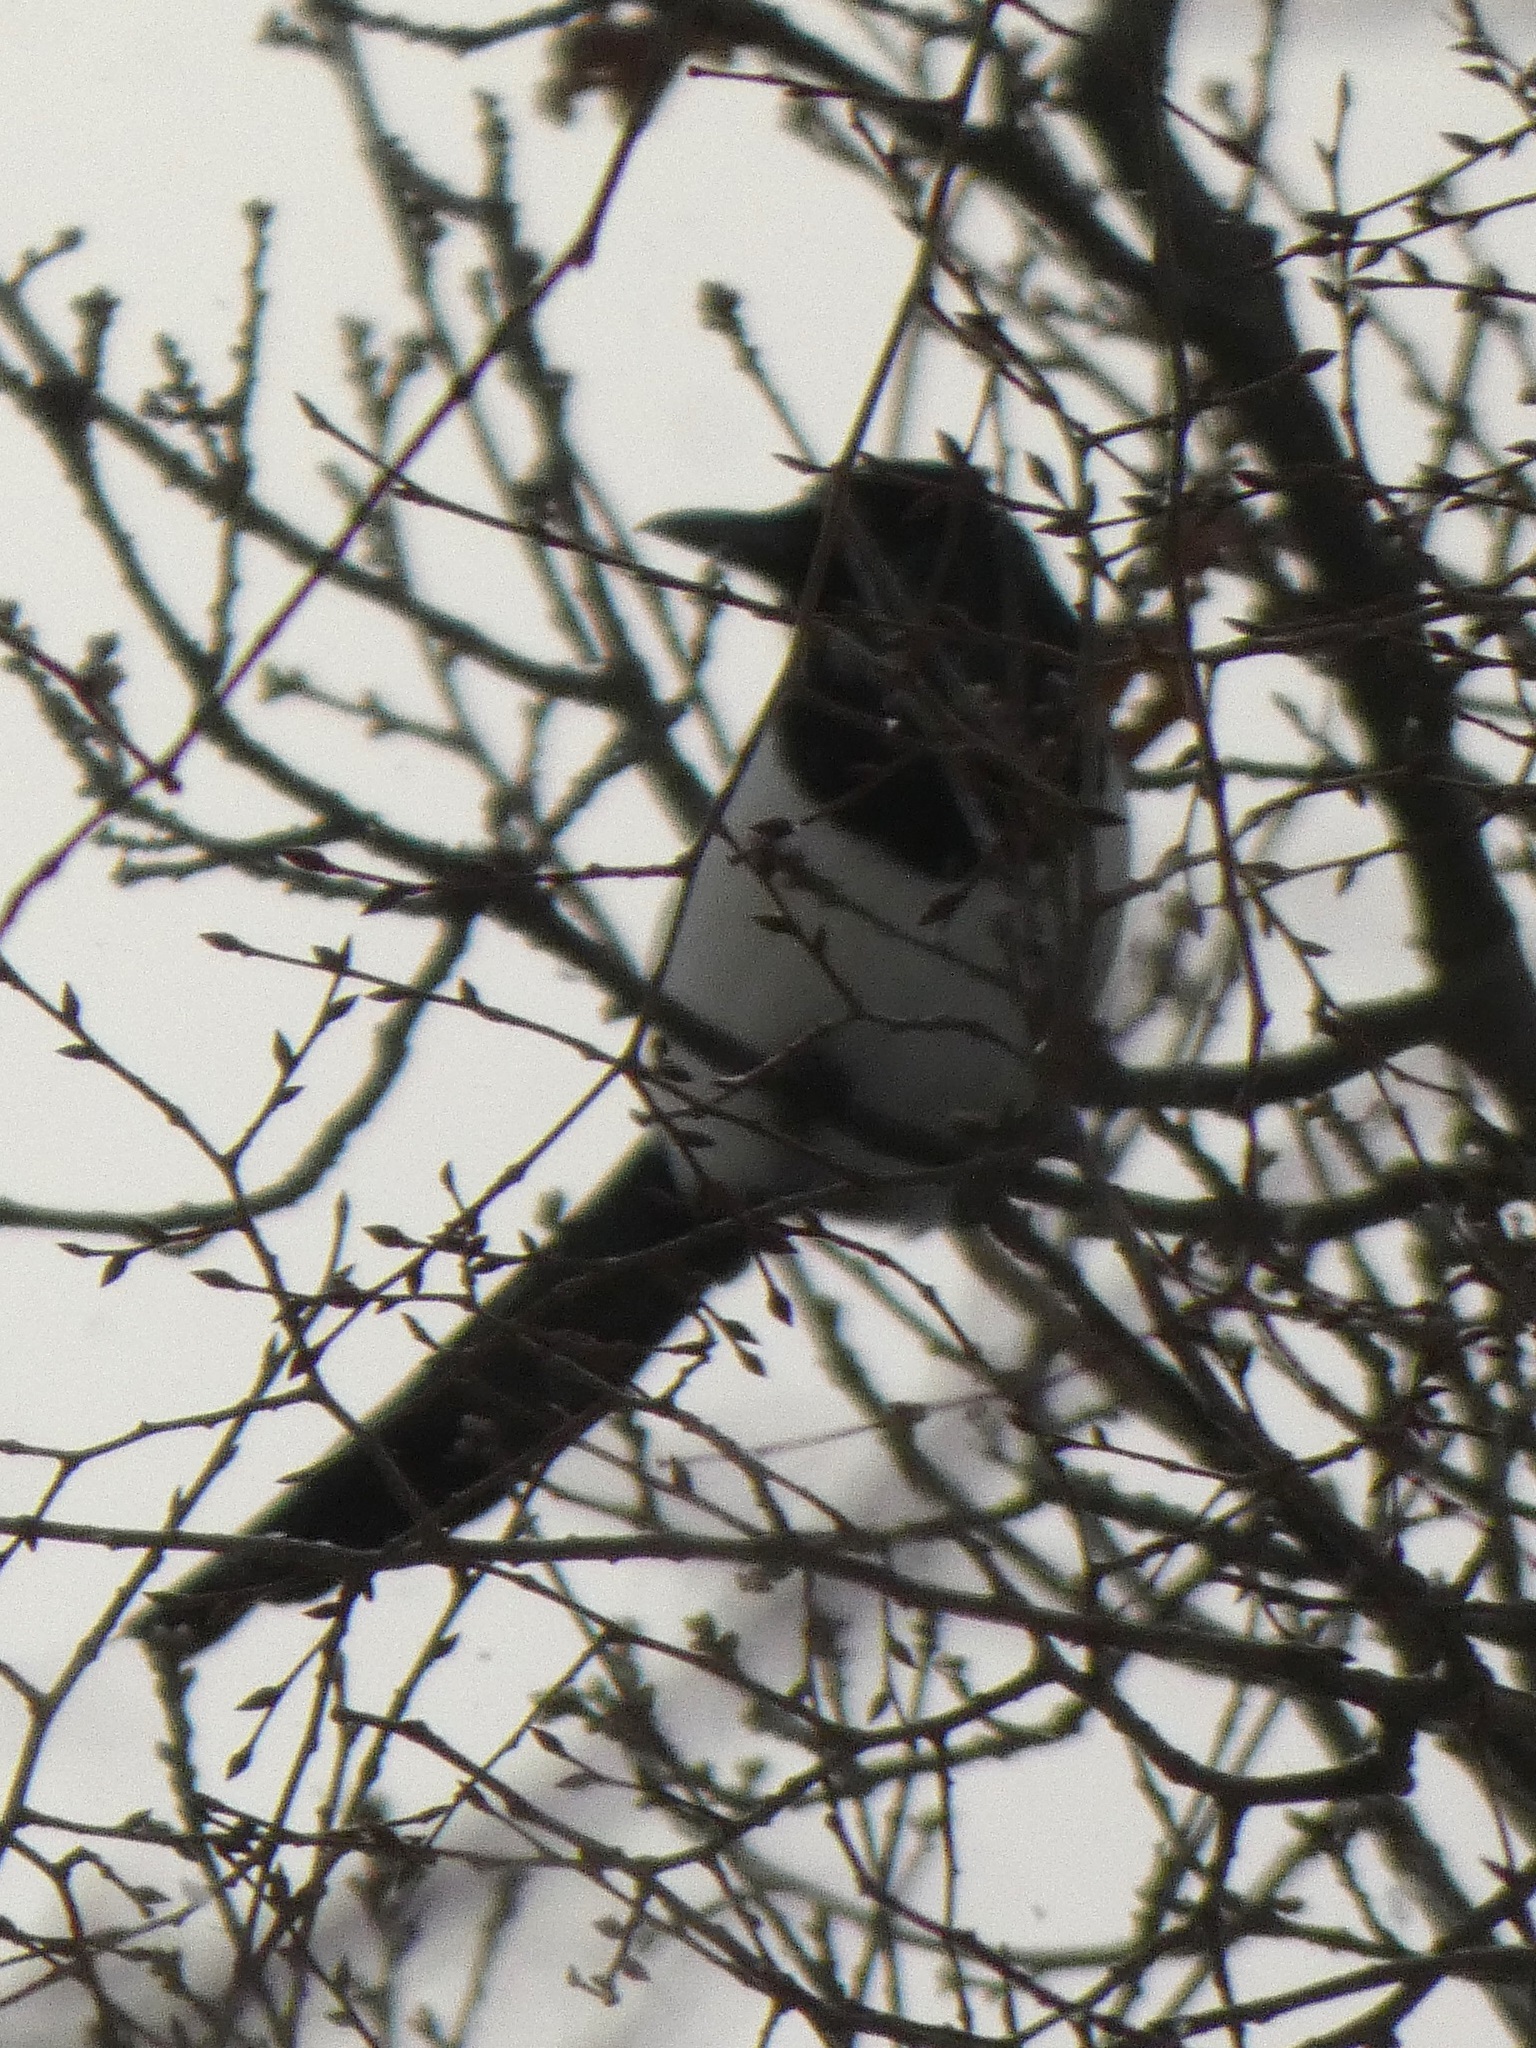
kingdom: Animalia
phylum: Chordata
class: Aves
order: Passeriformes
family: Corvidae
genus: Pica
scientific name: Pica pica
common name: Eurasian magpie
